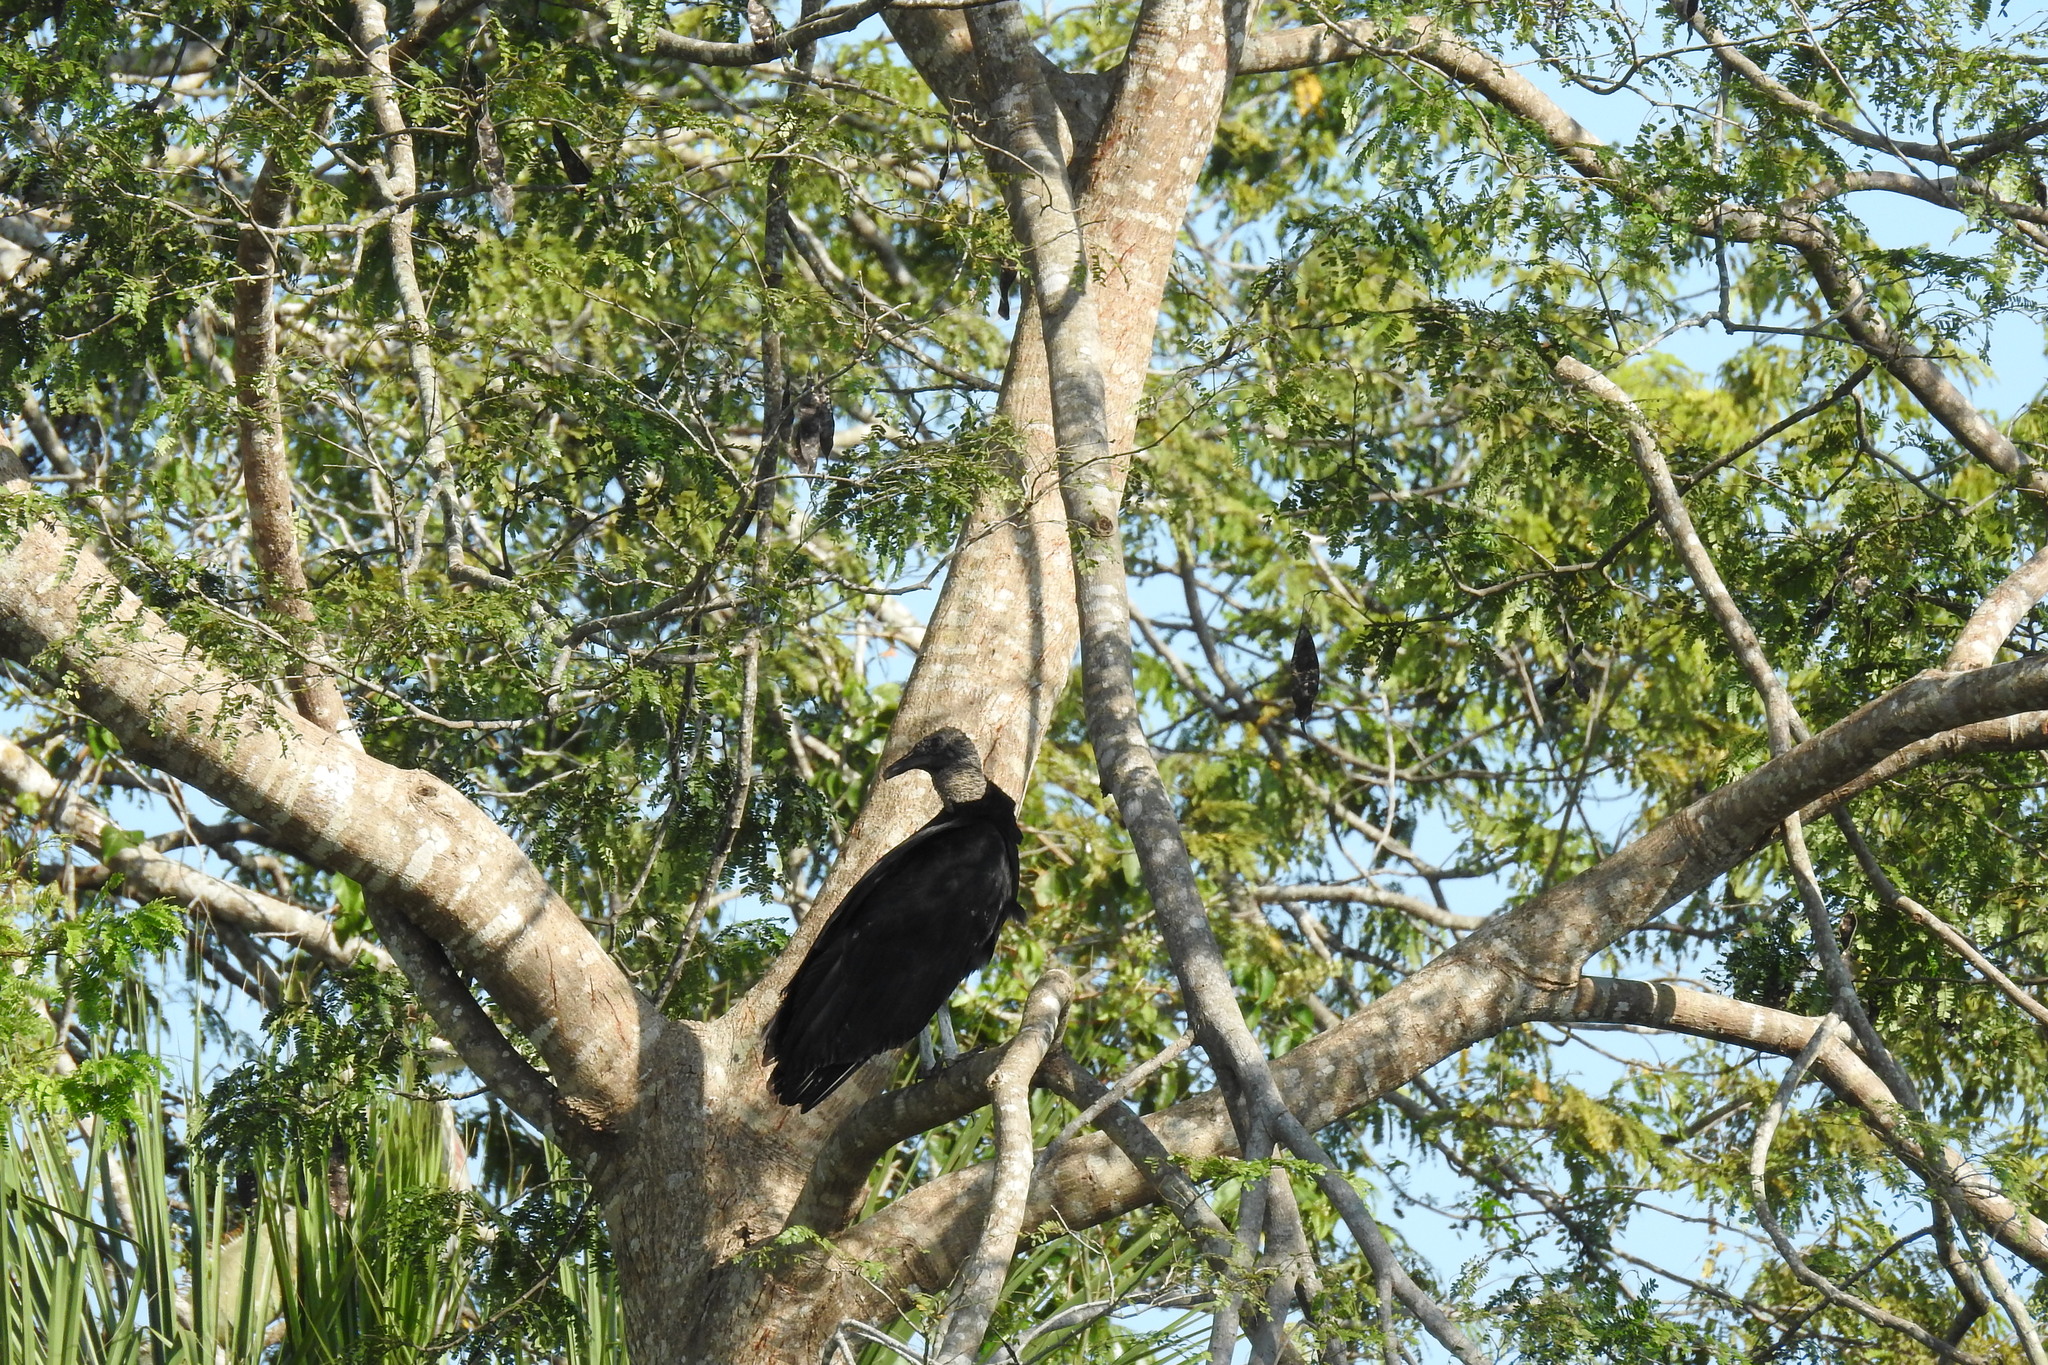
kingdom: Animalia
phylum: Chordata
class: Aves
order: Accipitriformes
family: Cathartidae
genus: Coragyps
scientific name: Coragyps atratus
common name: Black vulture
